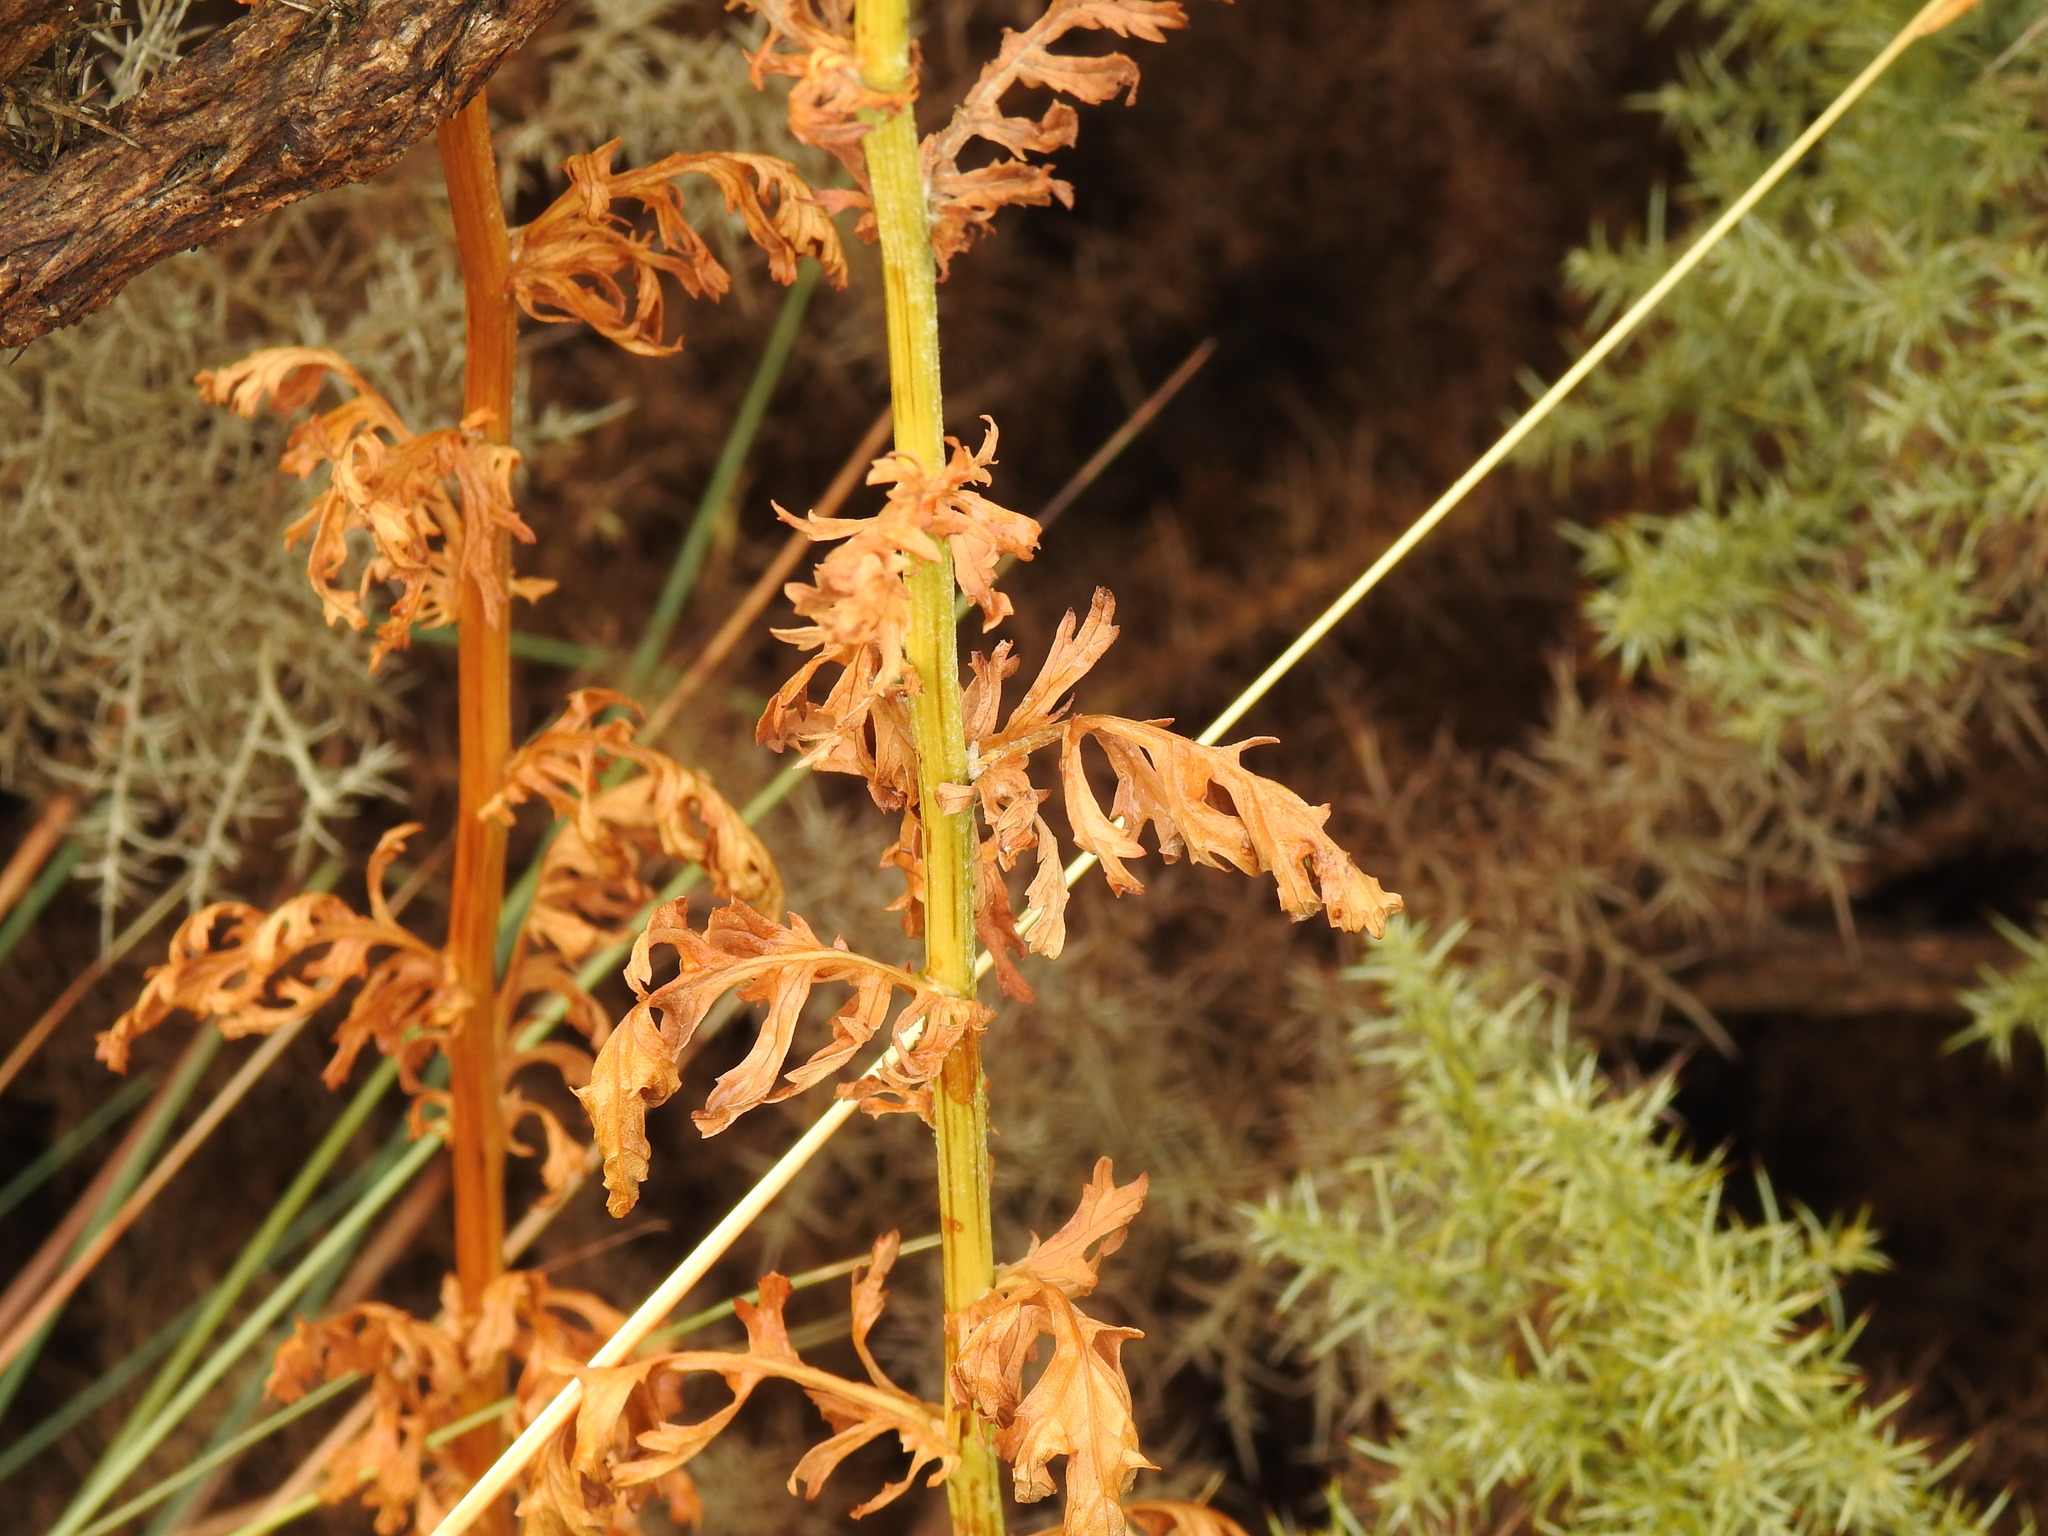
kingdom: Plantae
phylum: Tracheophyta
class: Magnoliopsida
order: Asterales
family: Asteraceae
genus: Jacobaea
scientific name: Jacobaea vulgaris
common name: Stinking willie
